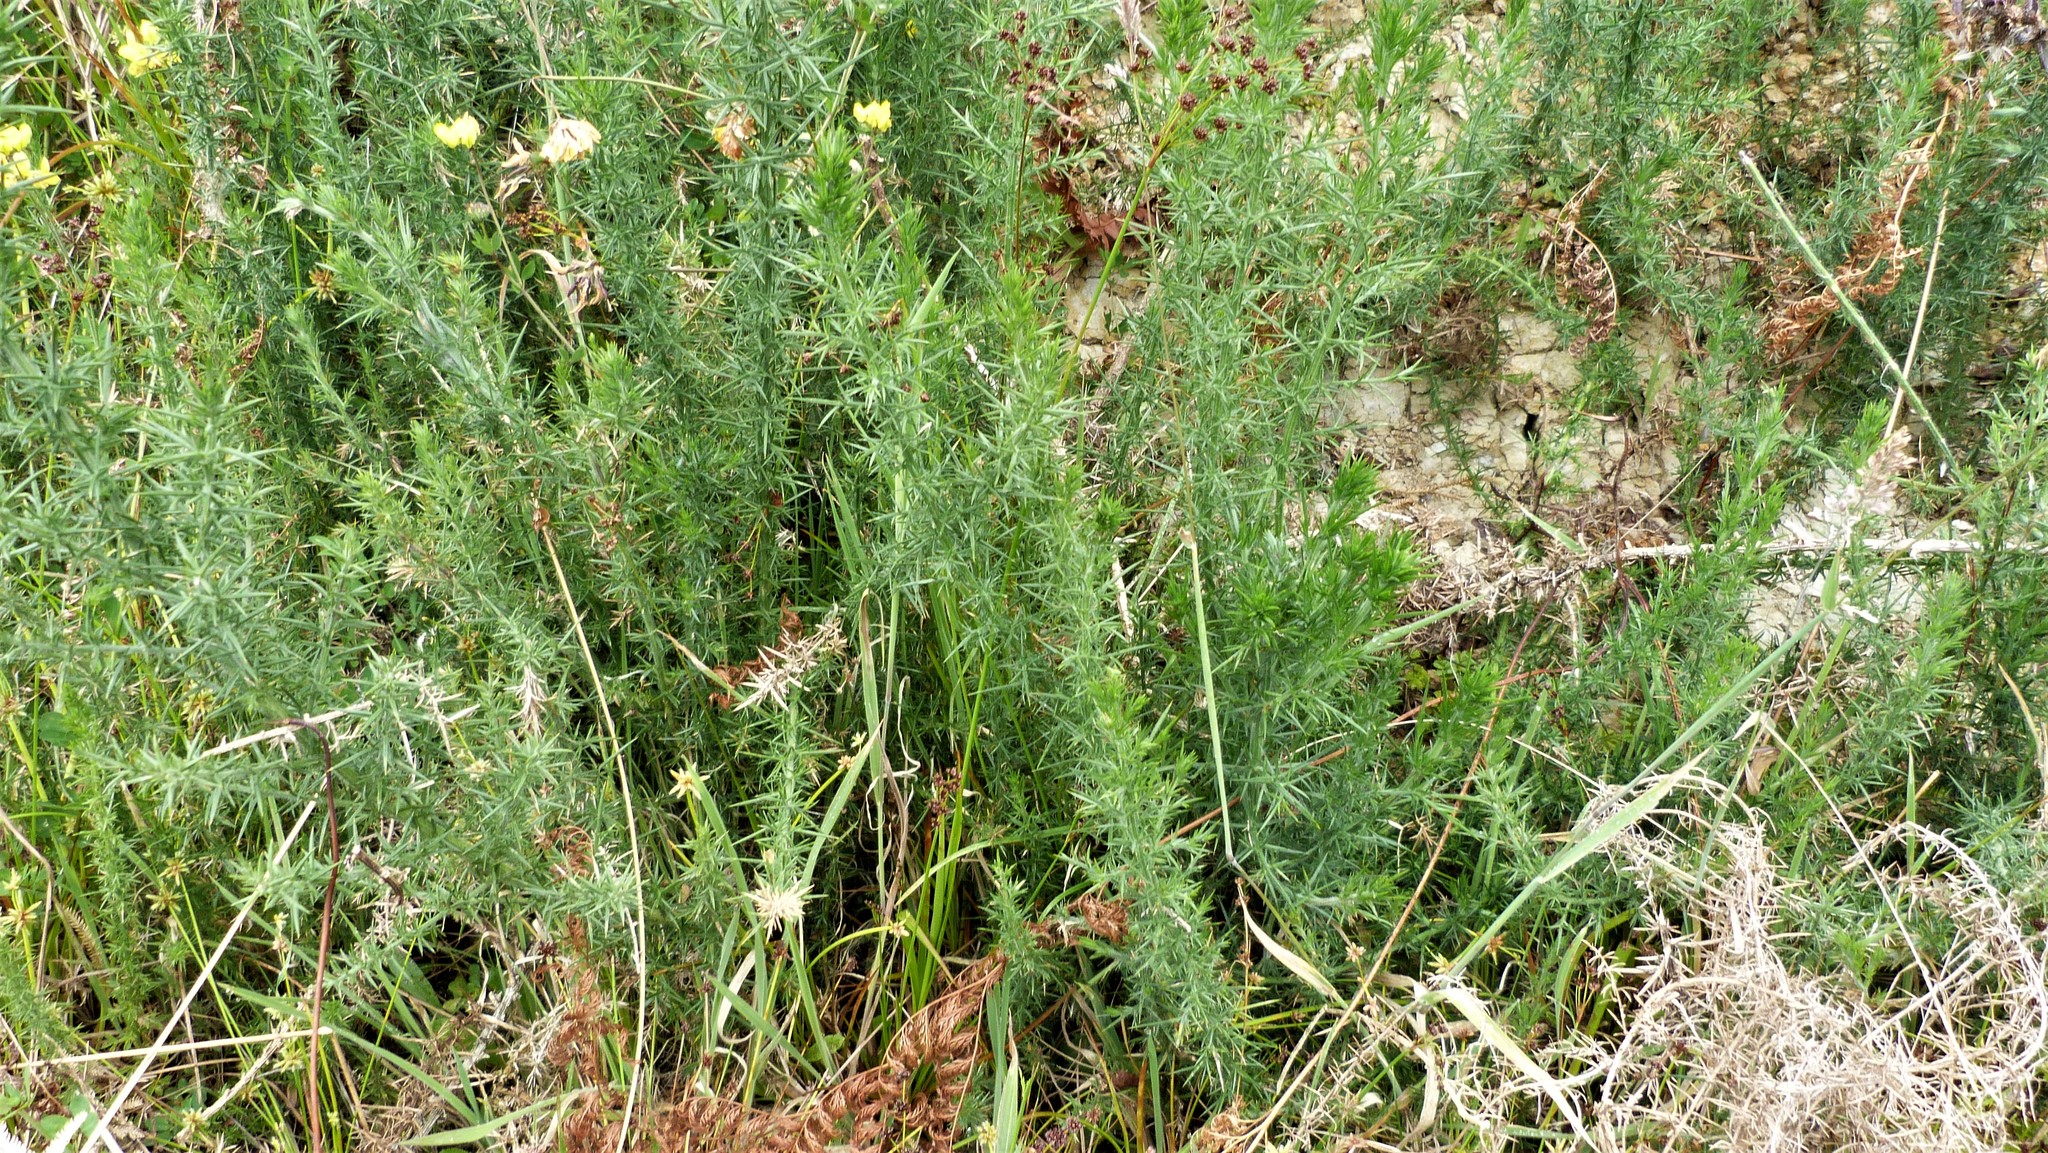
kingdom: Plantae
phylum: Tracheophyta
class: Magnoliopsida
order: Fabales
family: Fabaceae
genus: Ulex
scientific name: Ulex europaeus
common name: Common gorse
